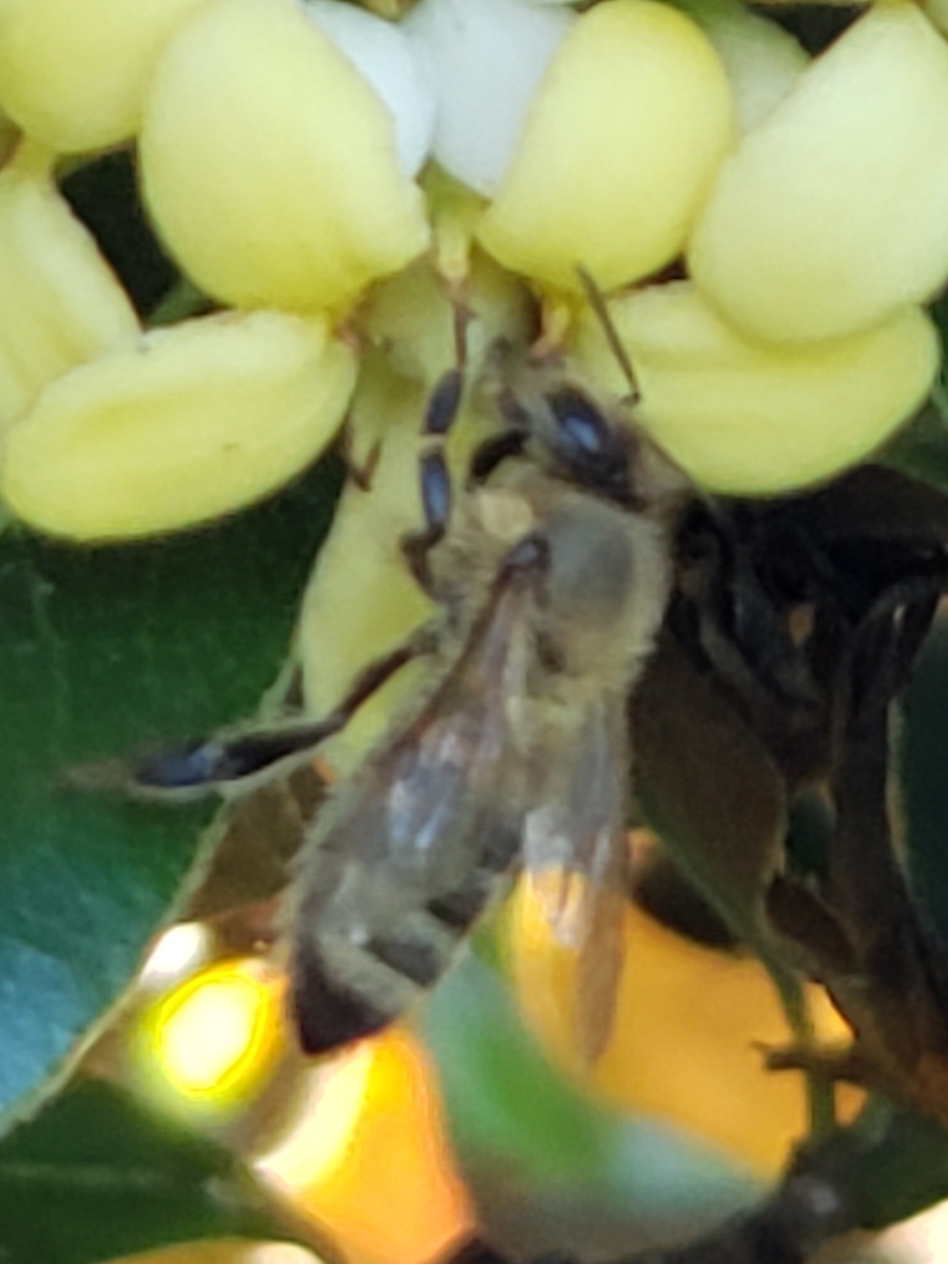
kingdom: Animalia
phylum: Arthropoda
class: Insecta
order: Hymenoptera
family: Apidae
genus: Apis
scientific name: Apis mellifera
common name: Honey bee
